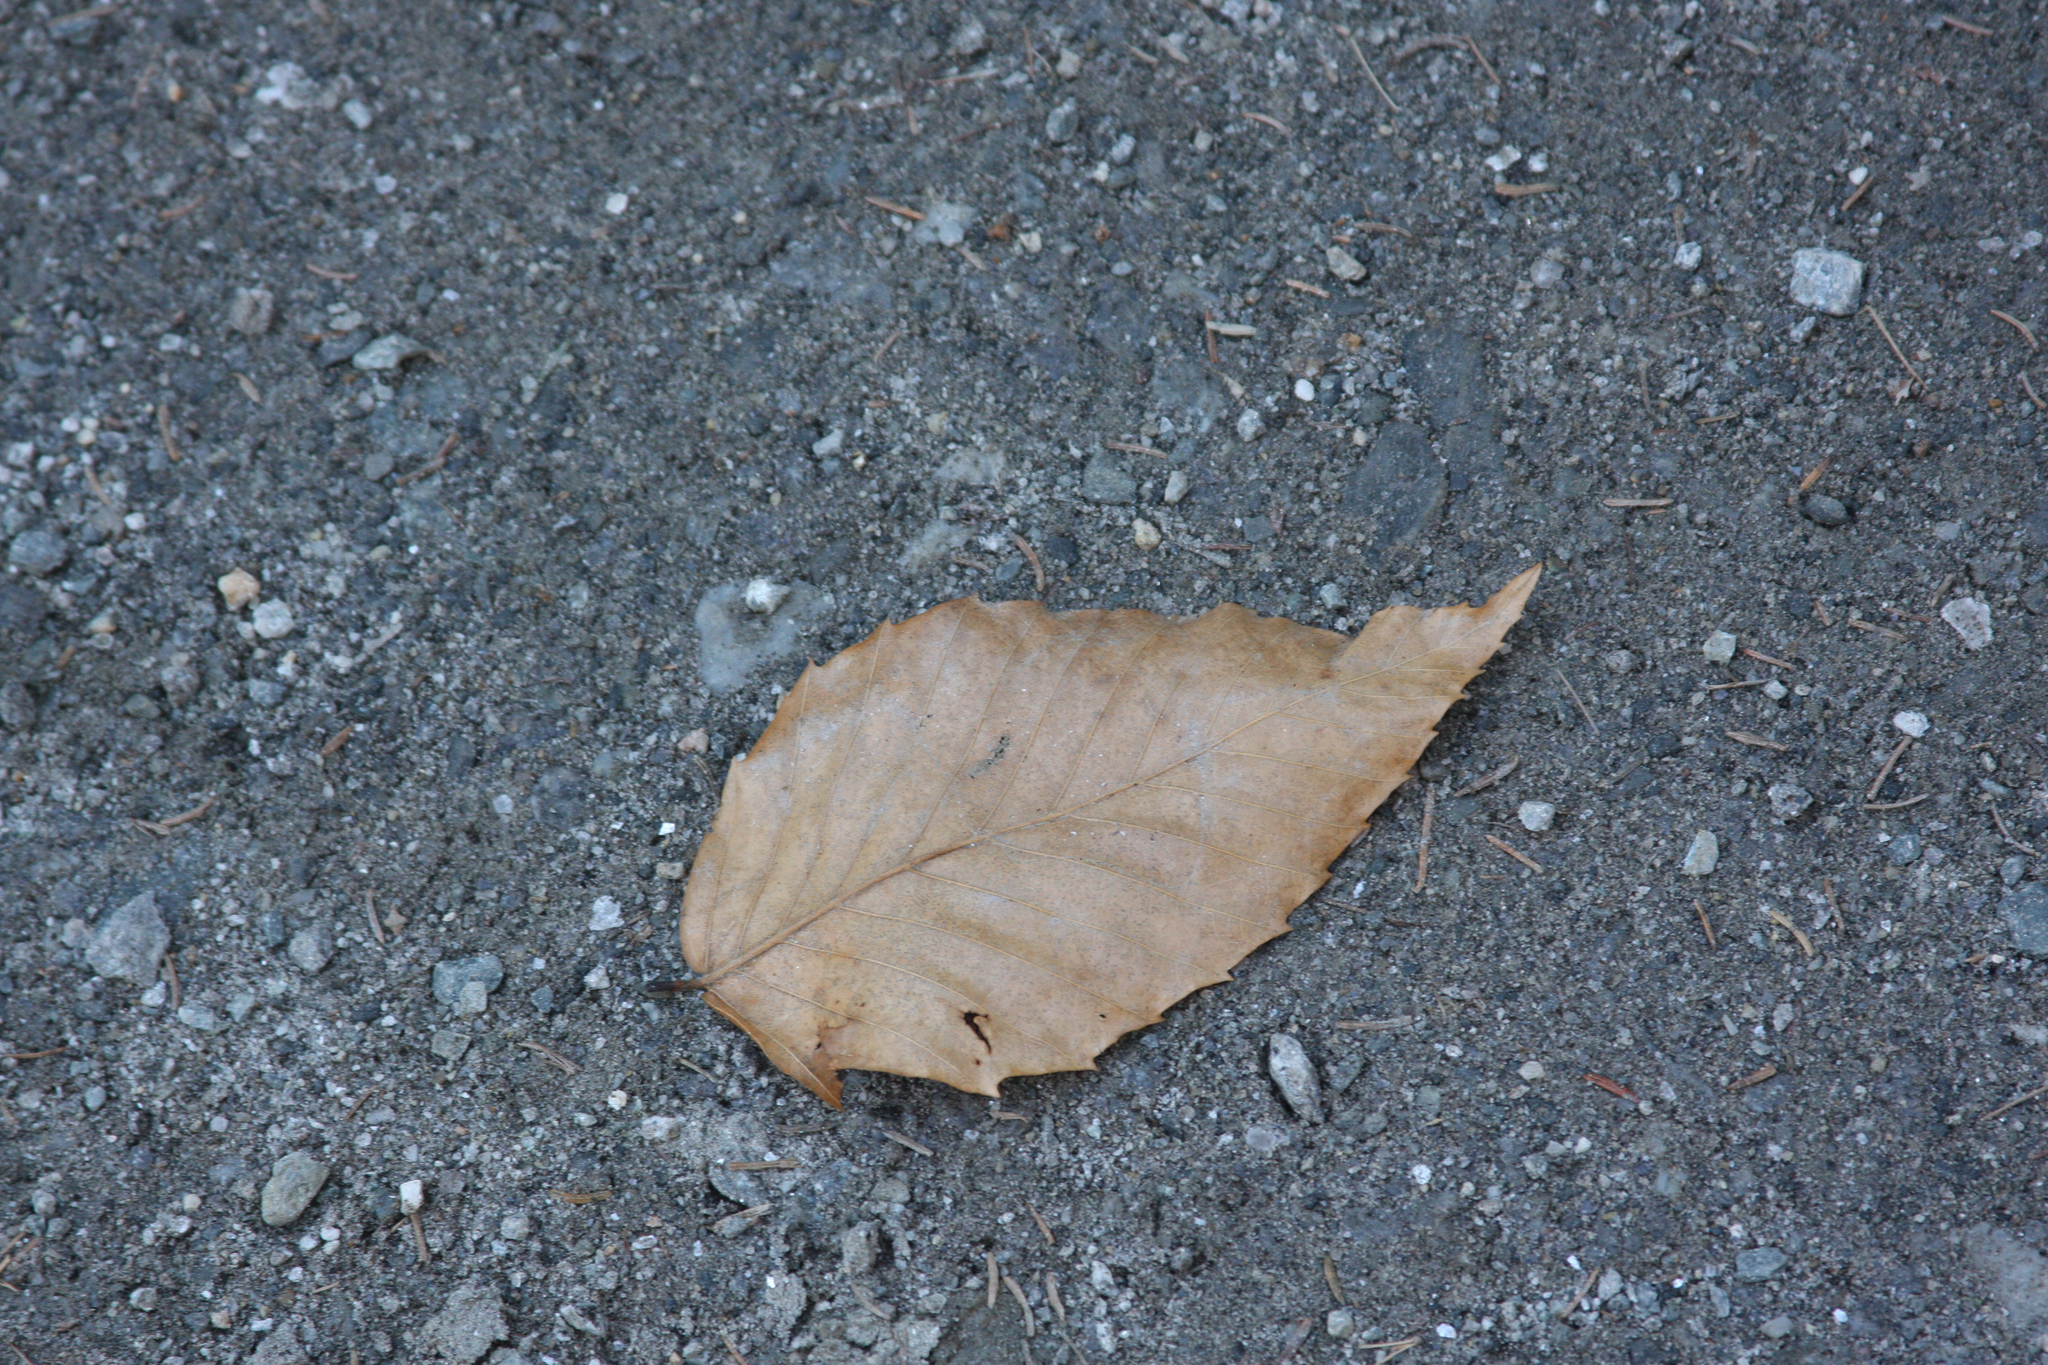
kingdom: Plantae
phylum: Tracheophyta
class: Magnoliopsida
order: Fagales
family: Fagaceae
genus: Fagus
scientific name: Fagus grandifolia
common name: American beech
